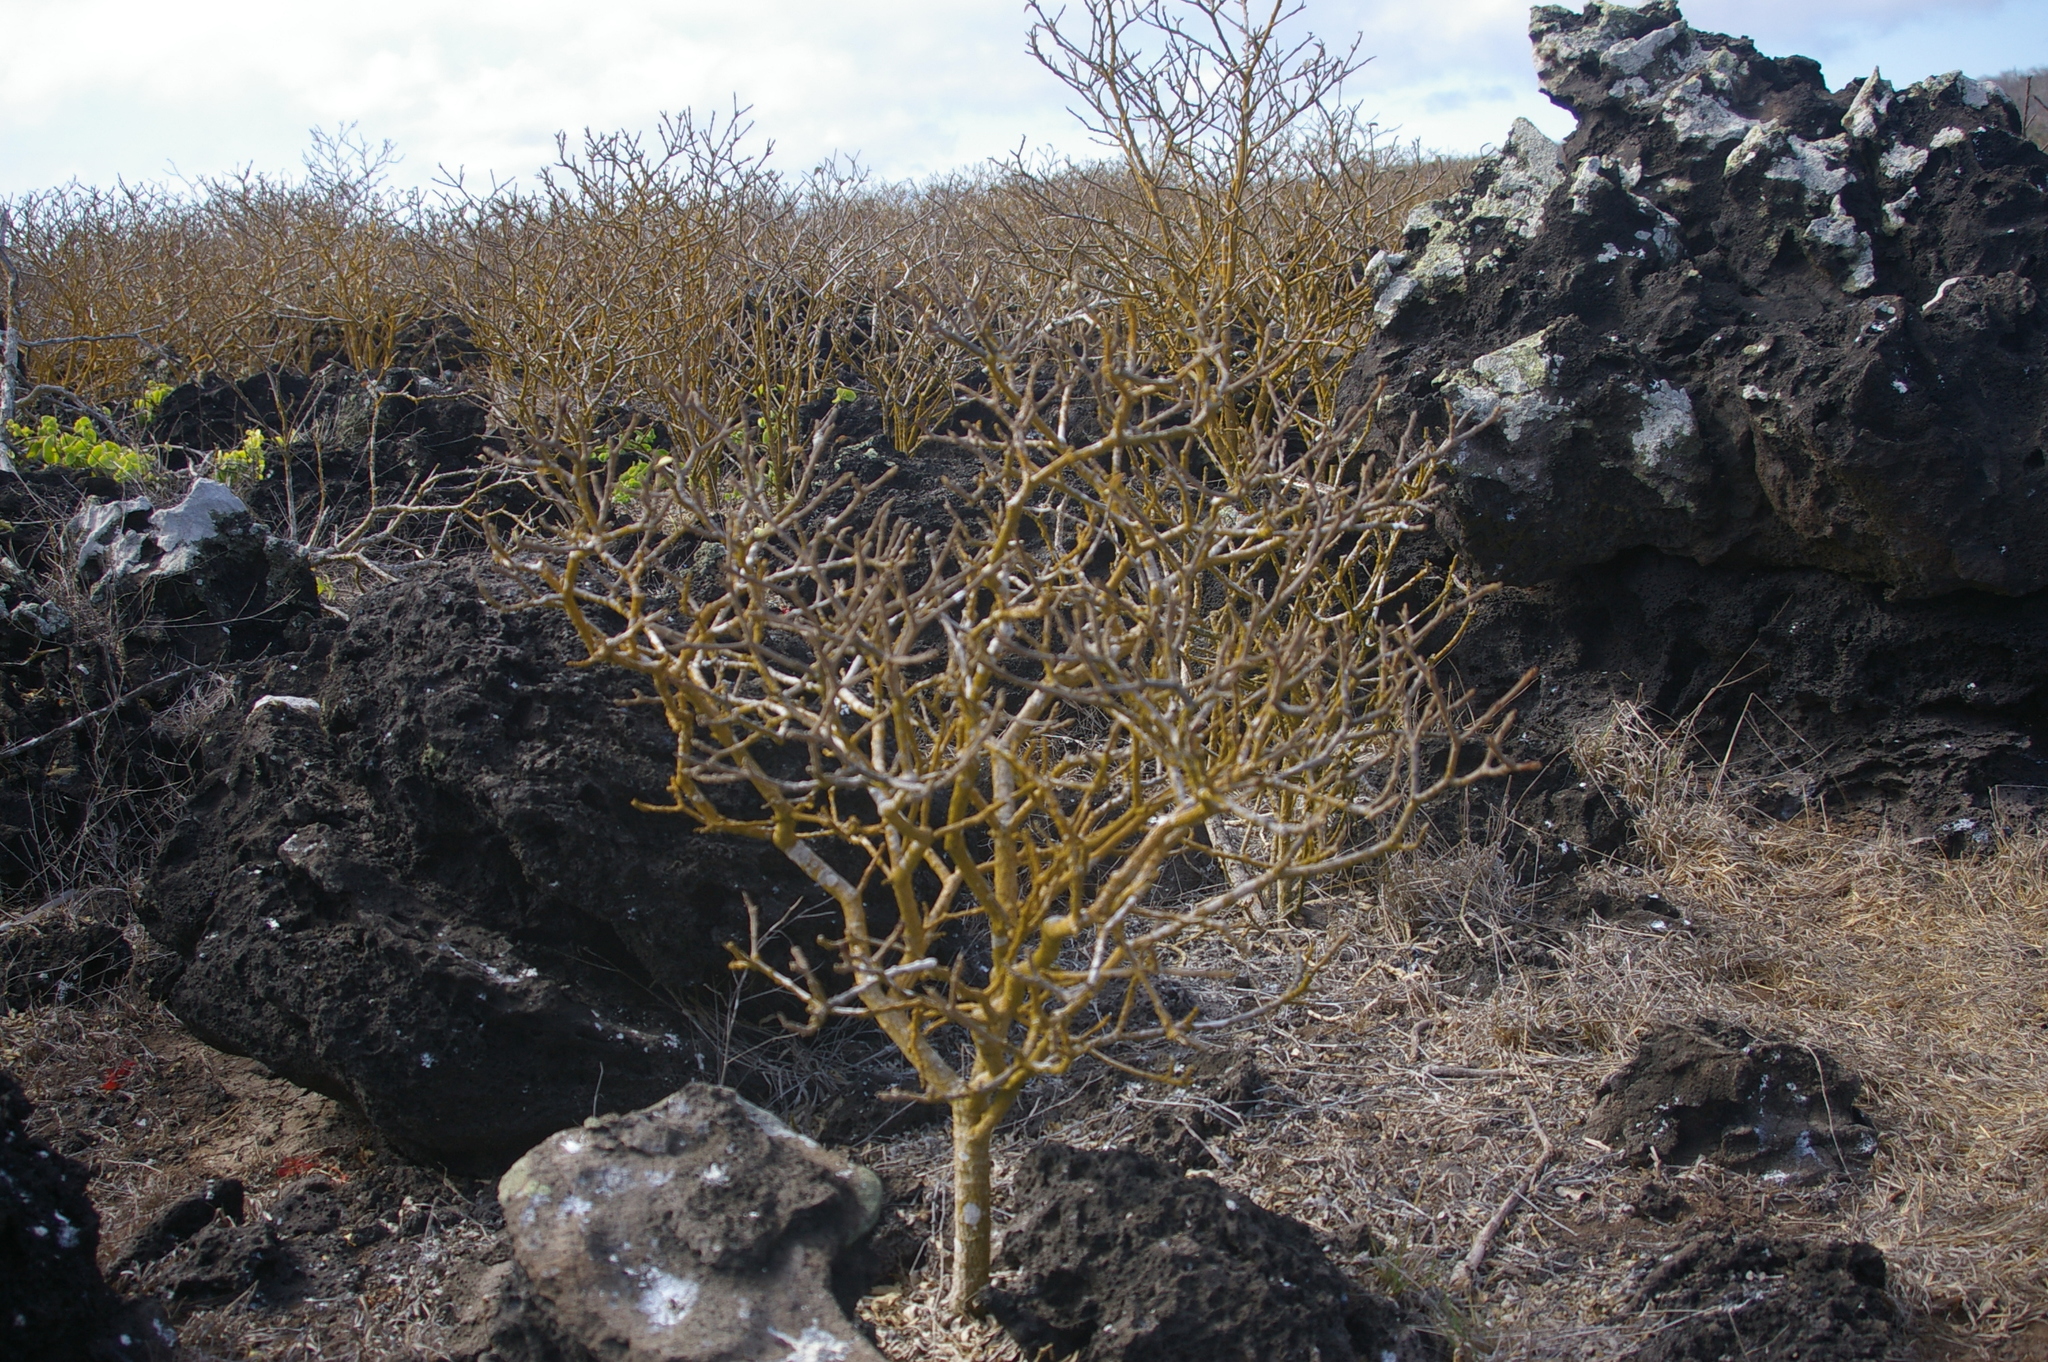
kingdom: Plantae
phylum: Tracheophyta
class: Magnoliopsida
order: Sapindales
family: Burseraceae
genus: Bursera
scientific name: Bursera graveolens
